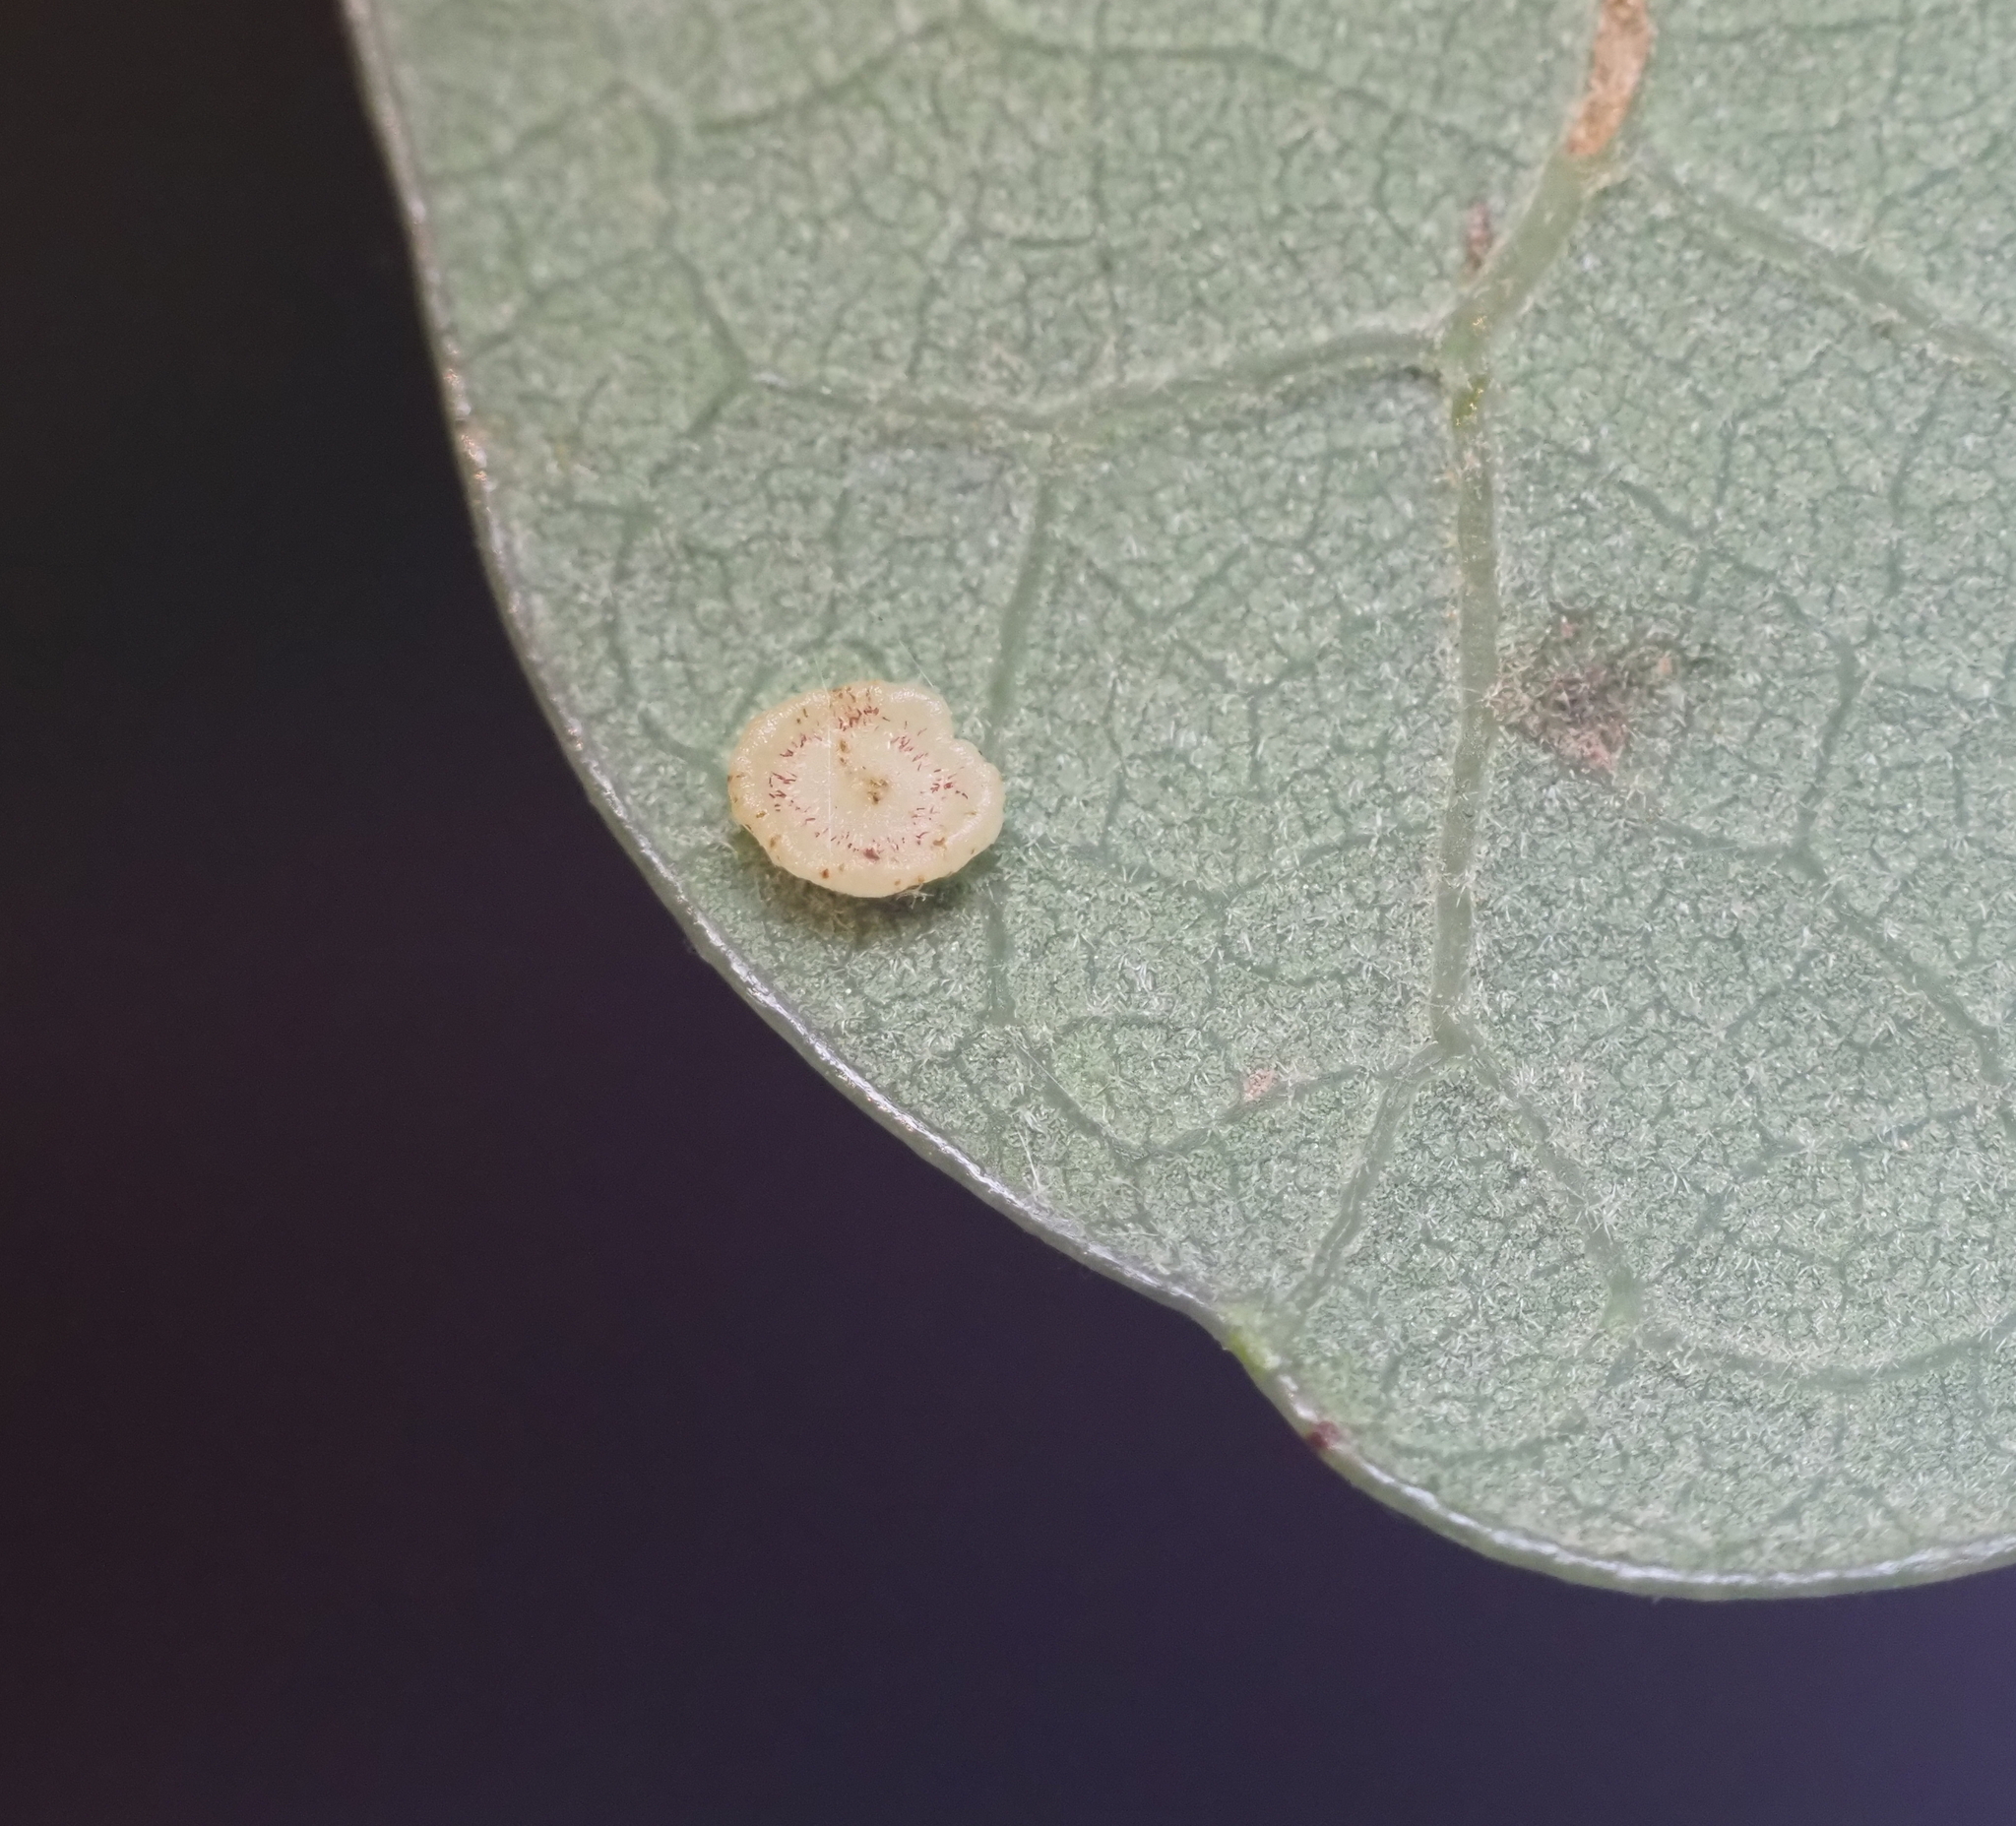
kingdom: Animalia
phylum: Arthropoda
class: Insecta
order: Hymenoptera
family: Cynipidae
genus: Neuroterus
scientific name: Neuroterus
